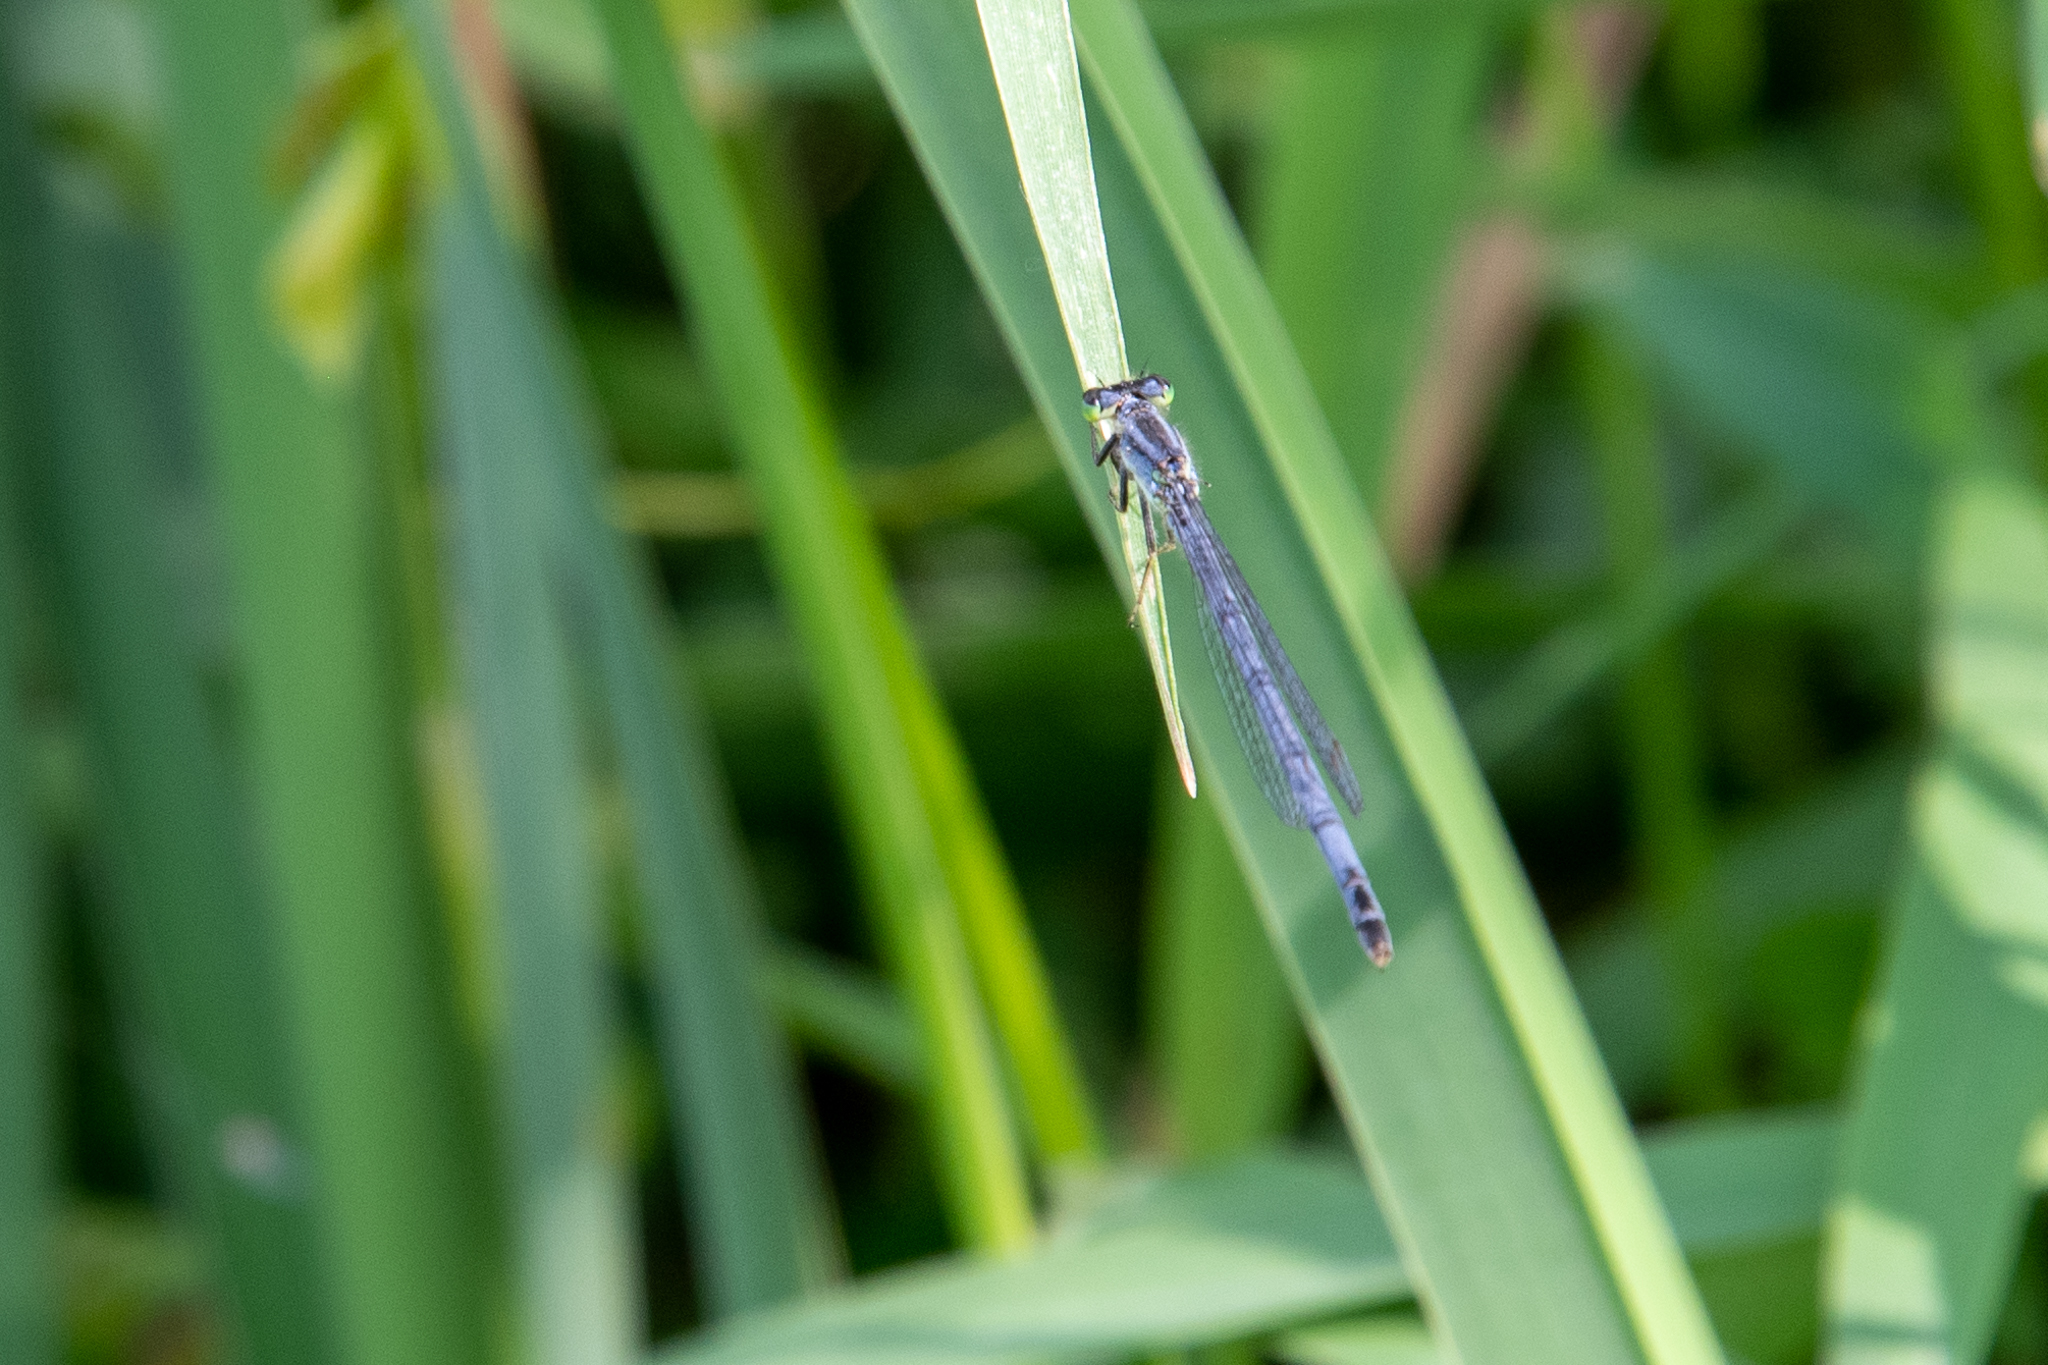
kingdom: Animalia
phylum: Arthropoda
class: Insecta
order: Odonata
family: Coenagrionidae
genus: Ischnura
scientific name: Ischnura verticalis
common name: Eastern forktail
